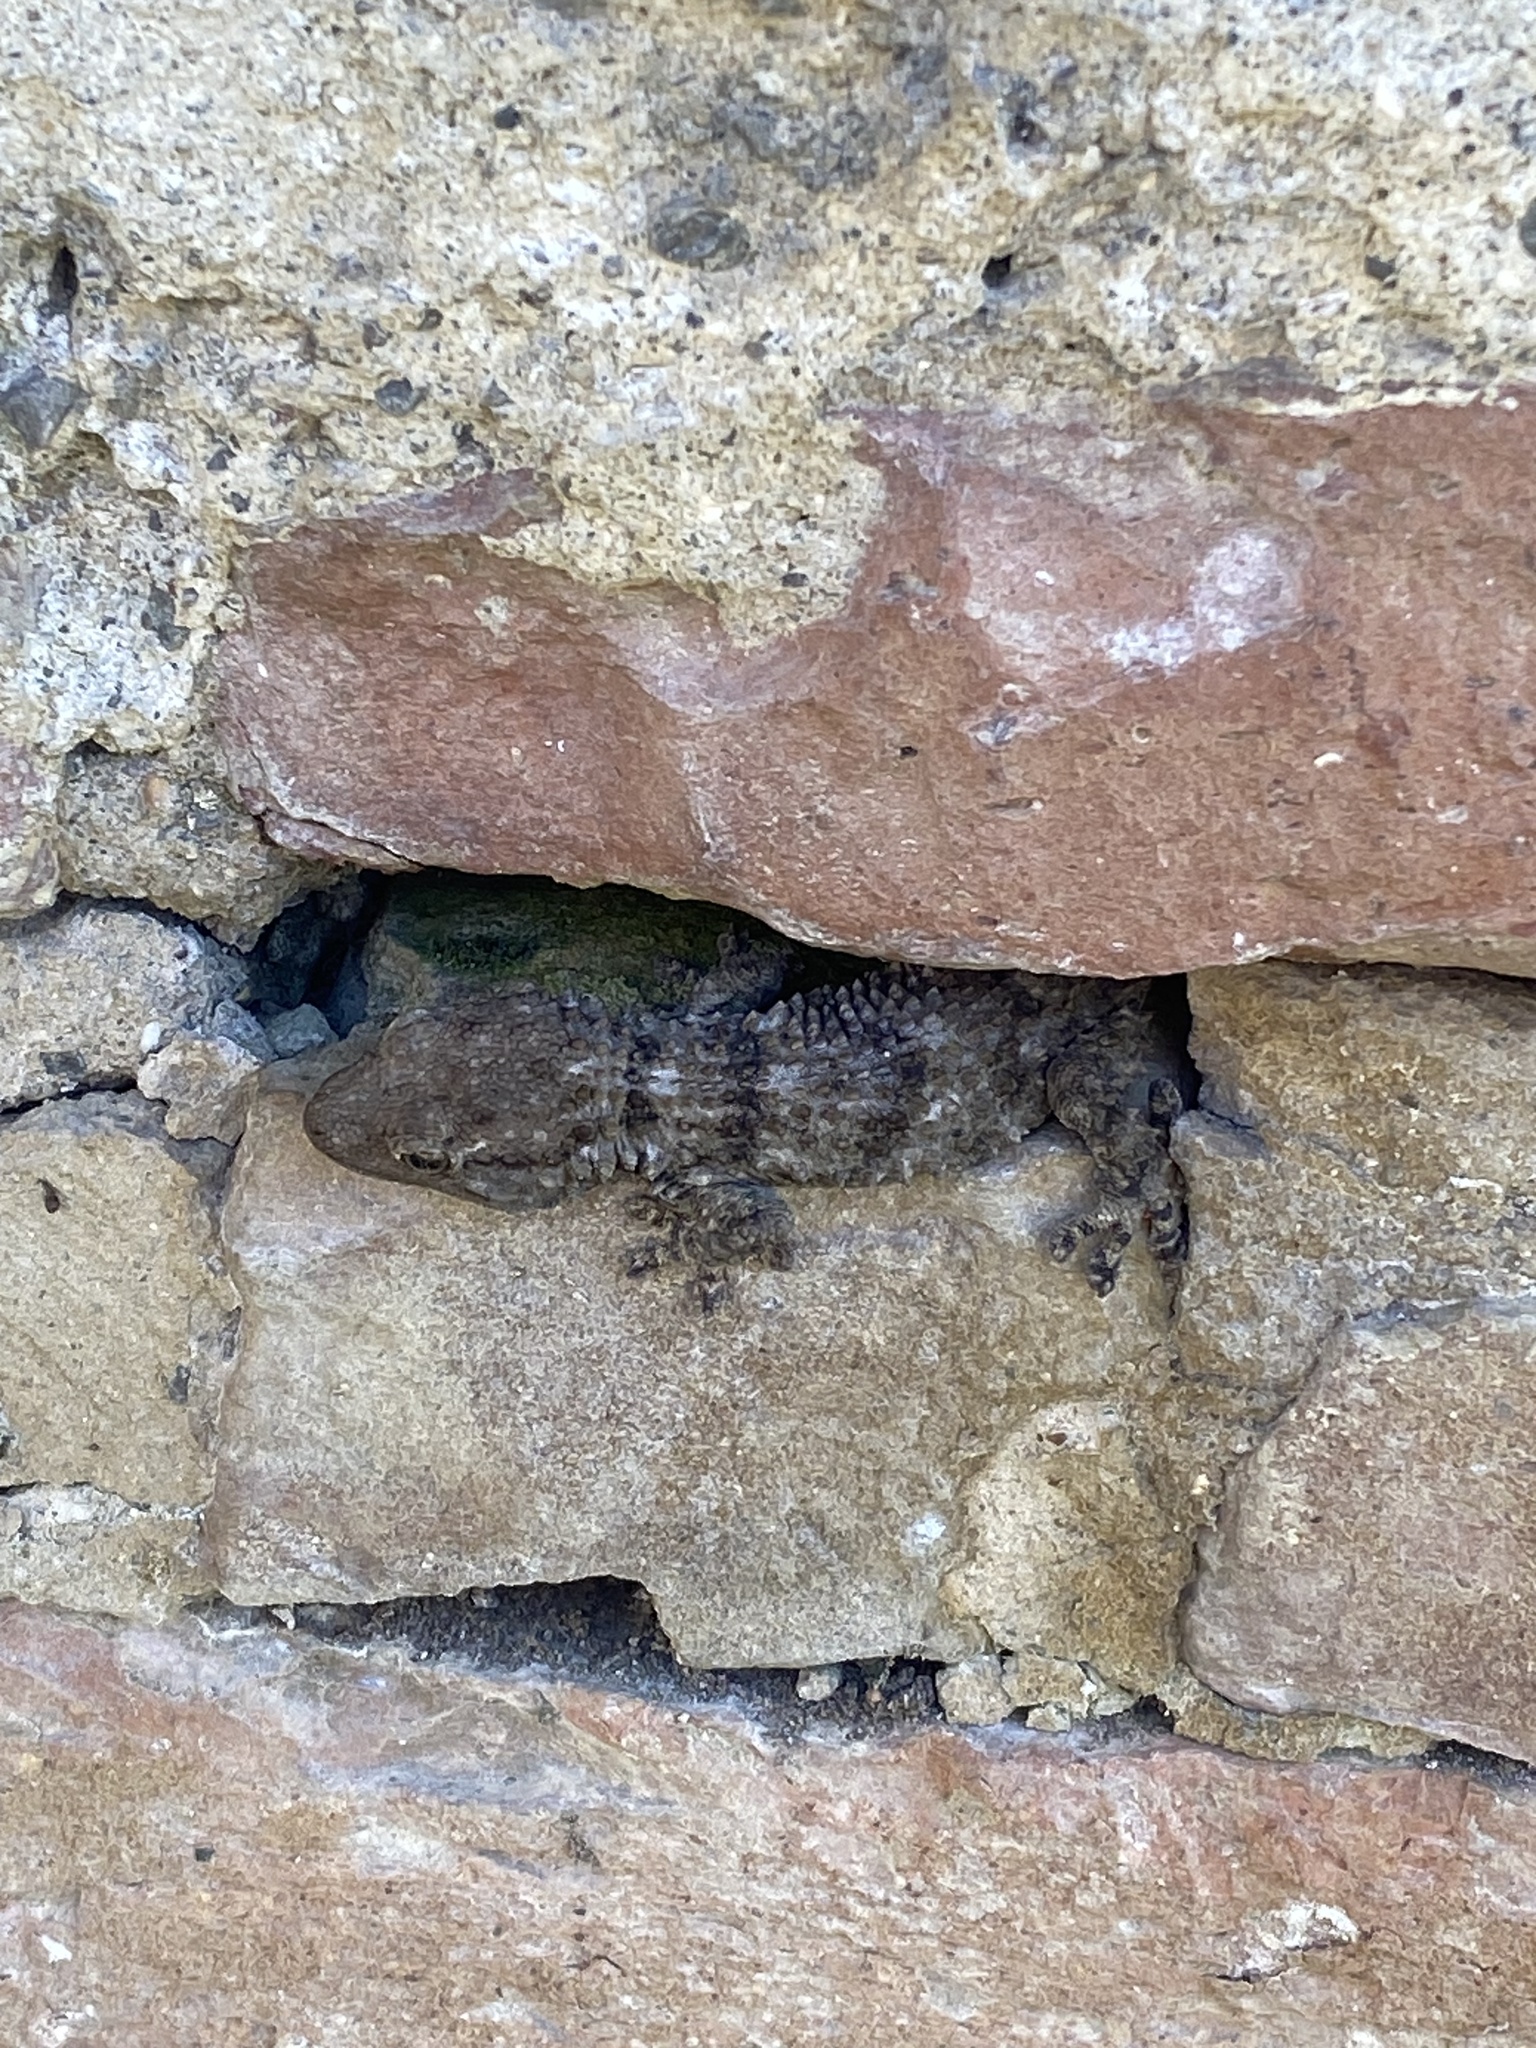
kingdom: Animalia
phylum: Chordata
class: Squamata
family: Phyllodactylidae
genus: Tarentola
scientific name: Tarentola mauritanica
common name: Moorish gecko
